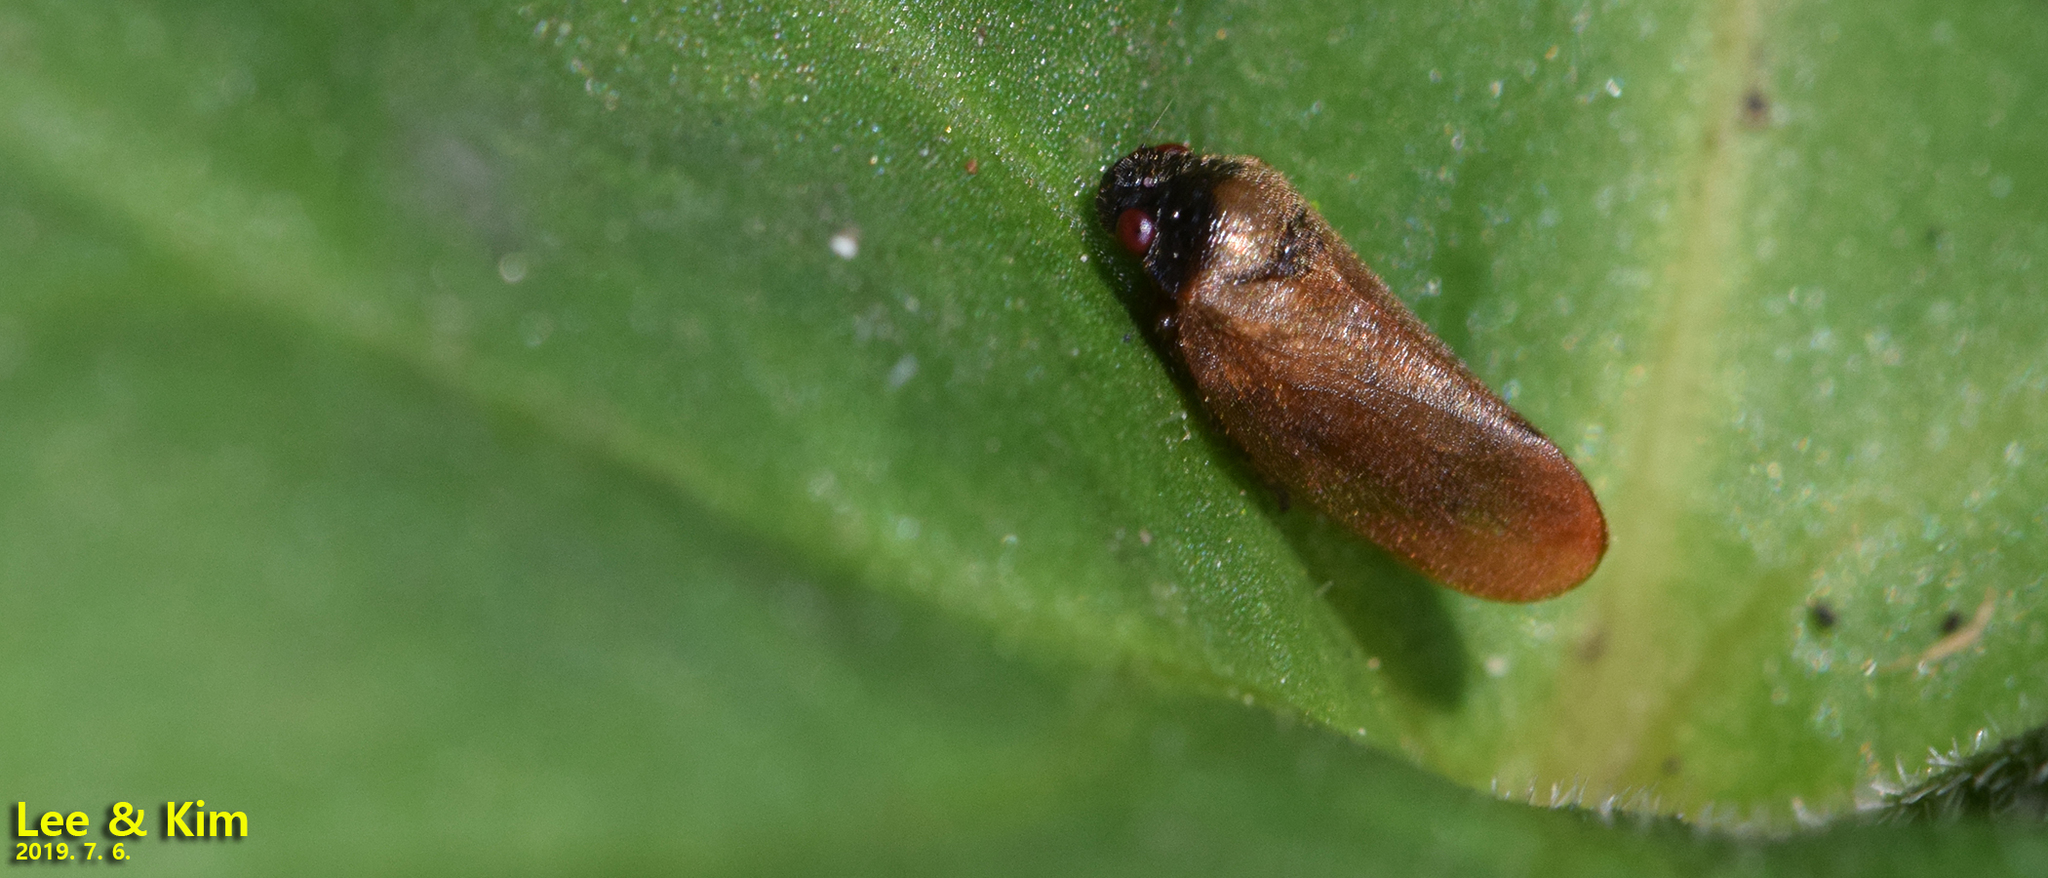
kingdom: Animalia
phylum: Arthropoda
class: Insecta
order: Hemiptera
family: Cercopidae
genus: Eoscarta
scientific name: Eoscarta assimilis
